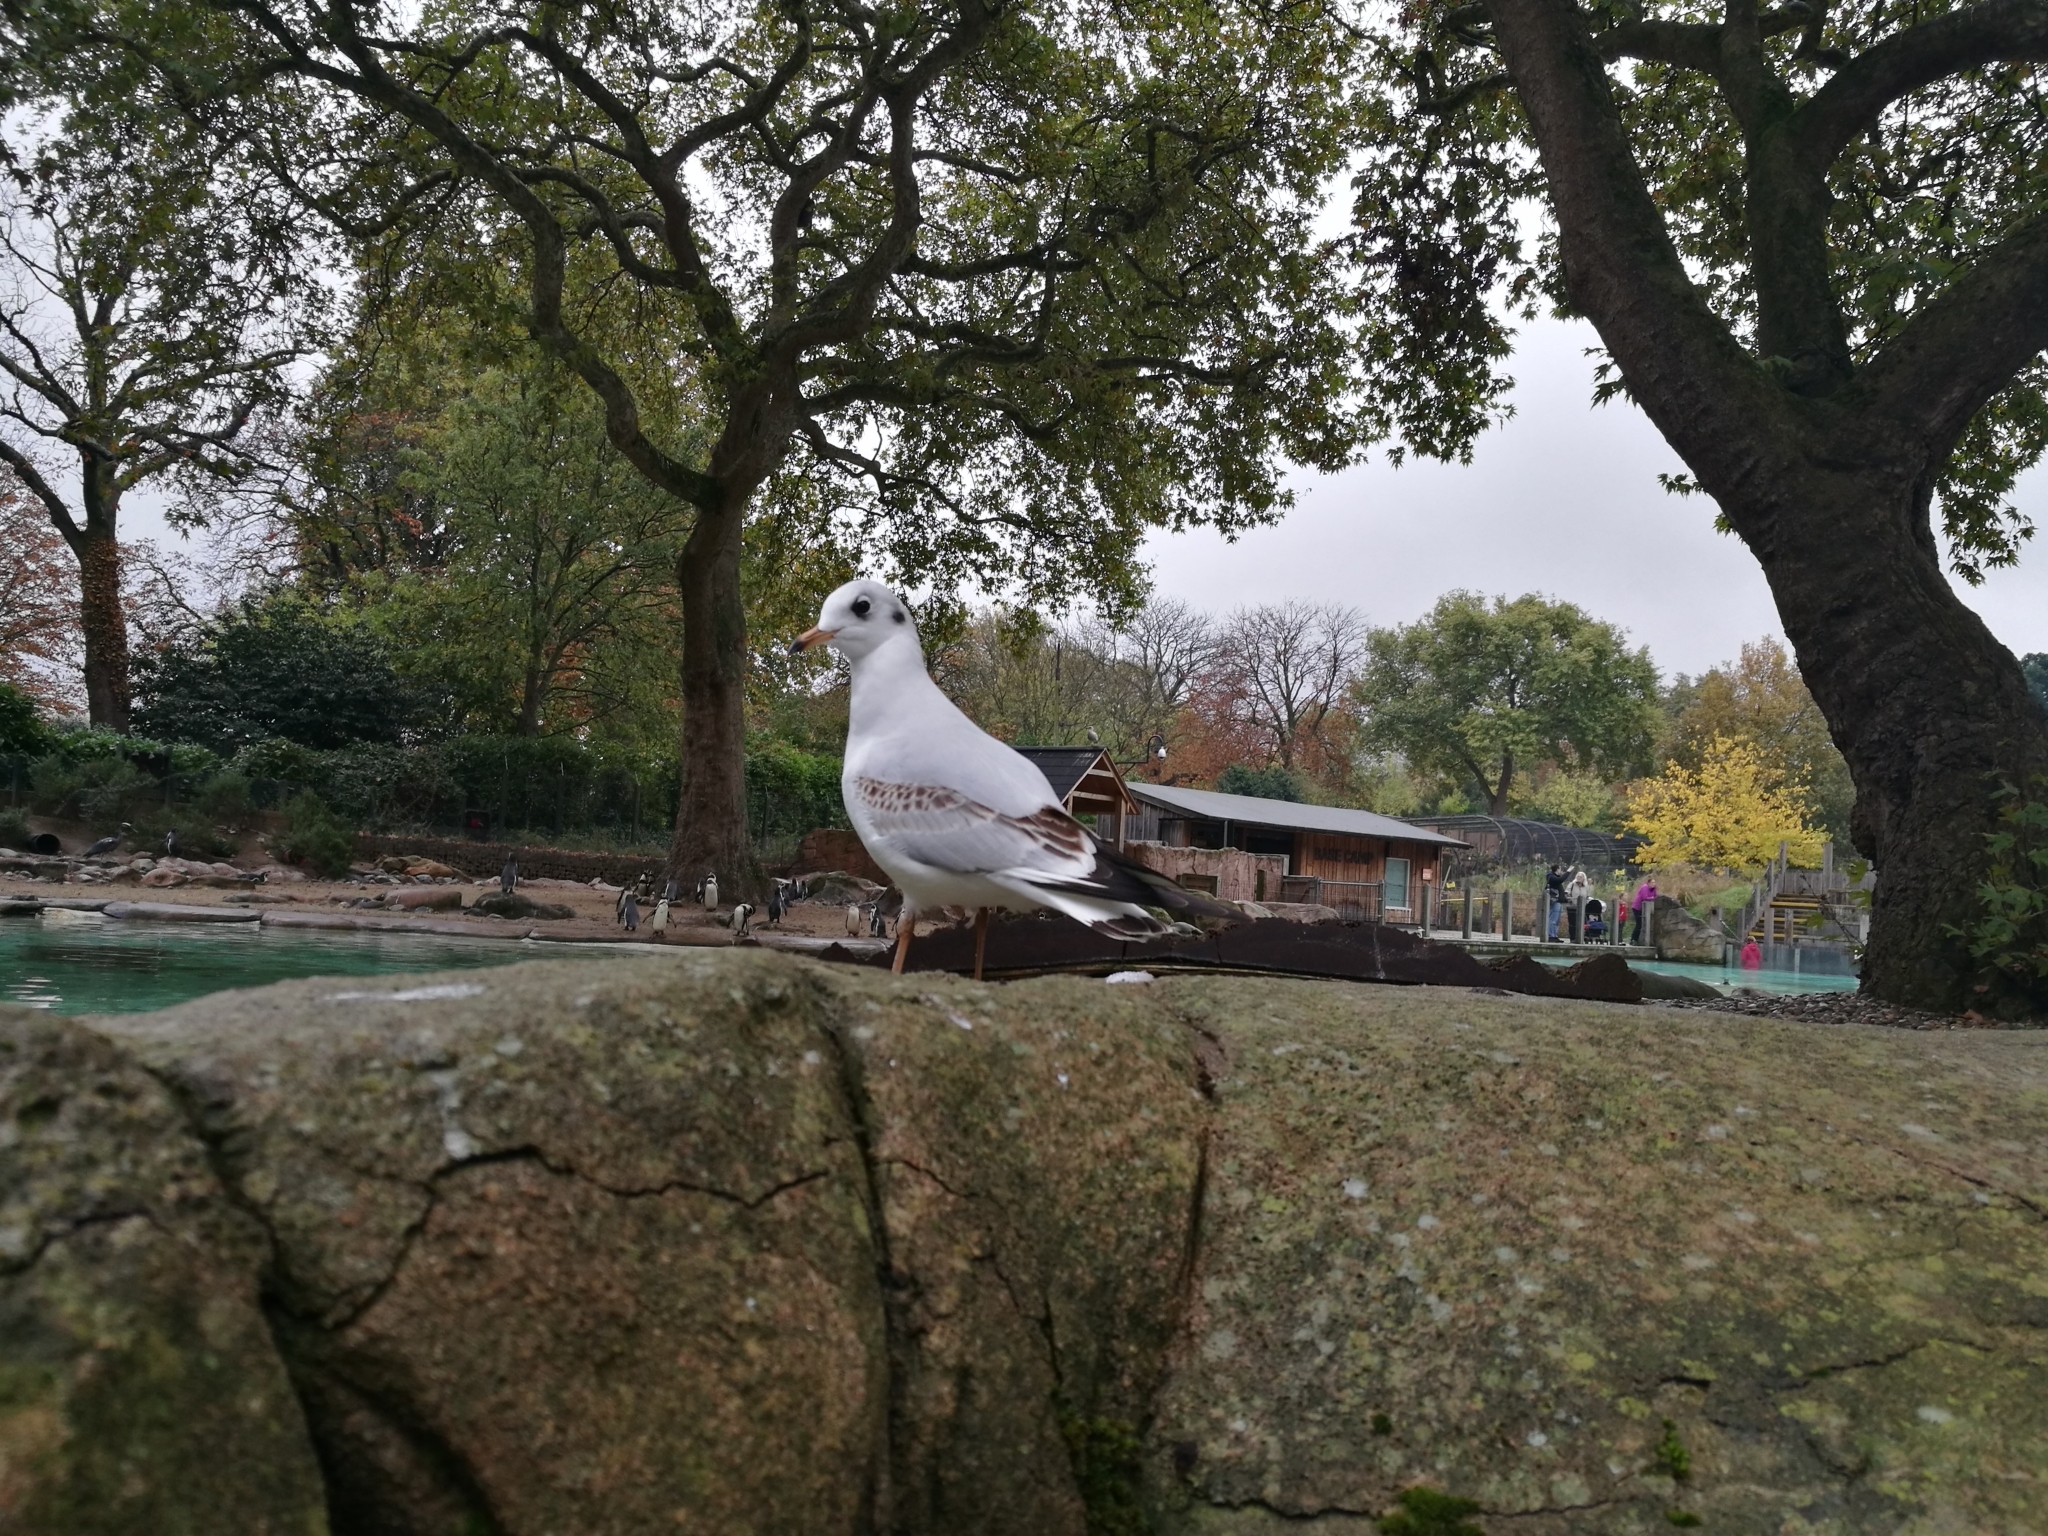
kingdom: Animalia
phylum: Chordata
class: Aves
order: Charadriiformes
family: Laridae
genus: Chroicocephalus
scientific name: Chroicocephalus ridibundus
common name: Black-headed gull
